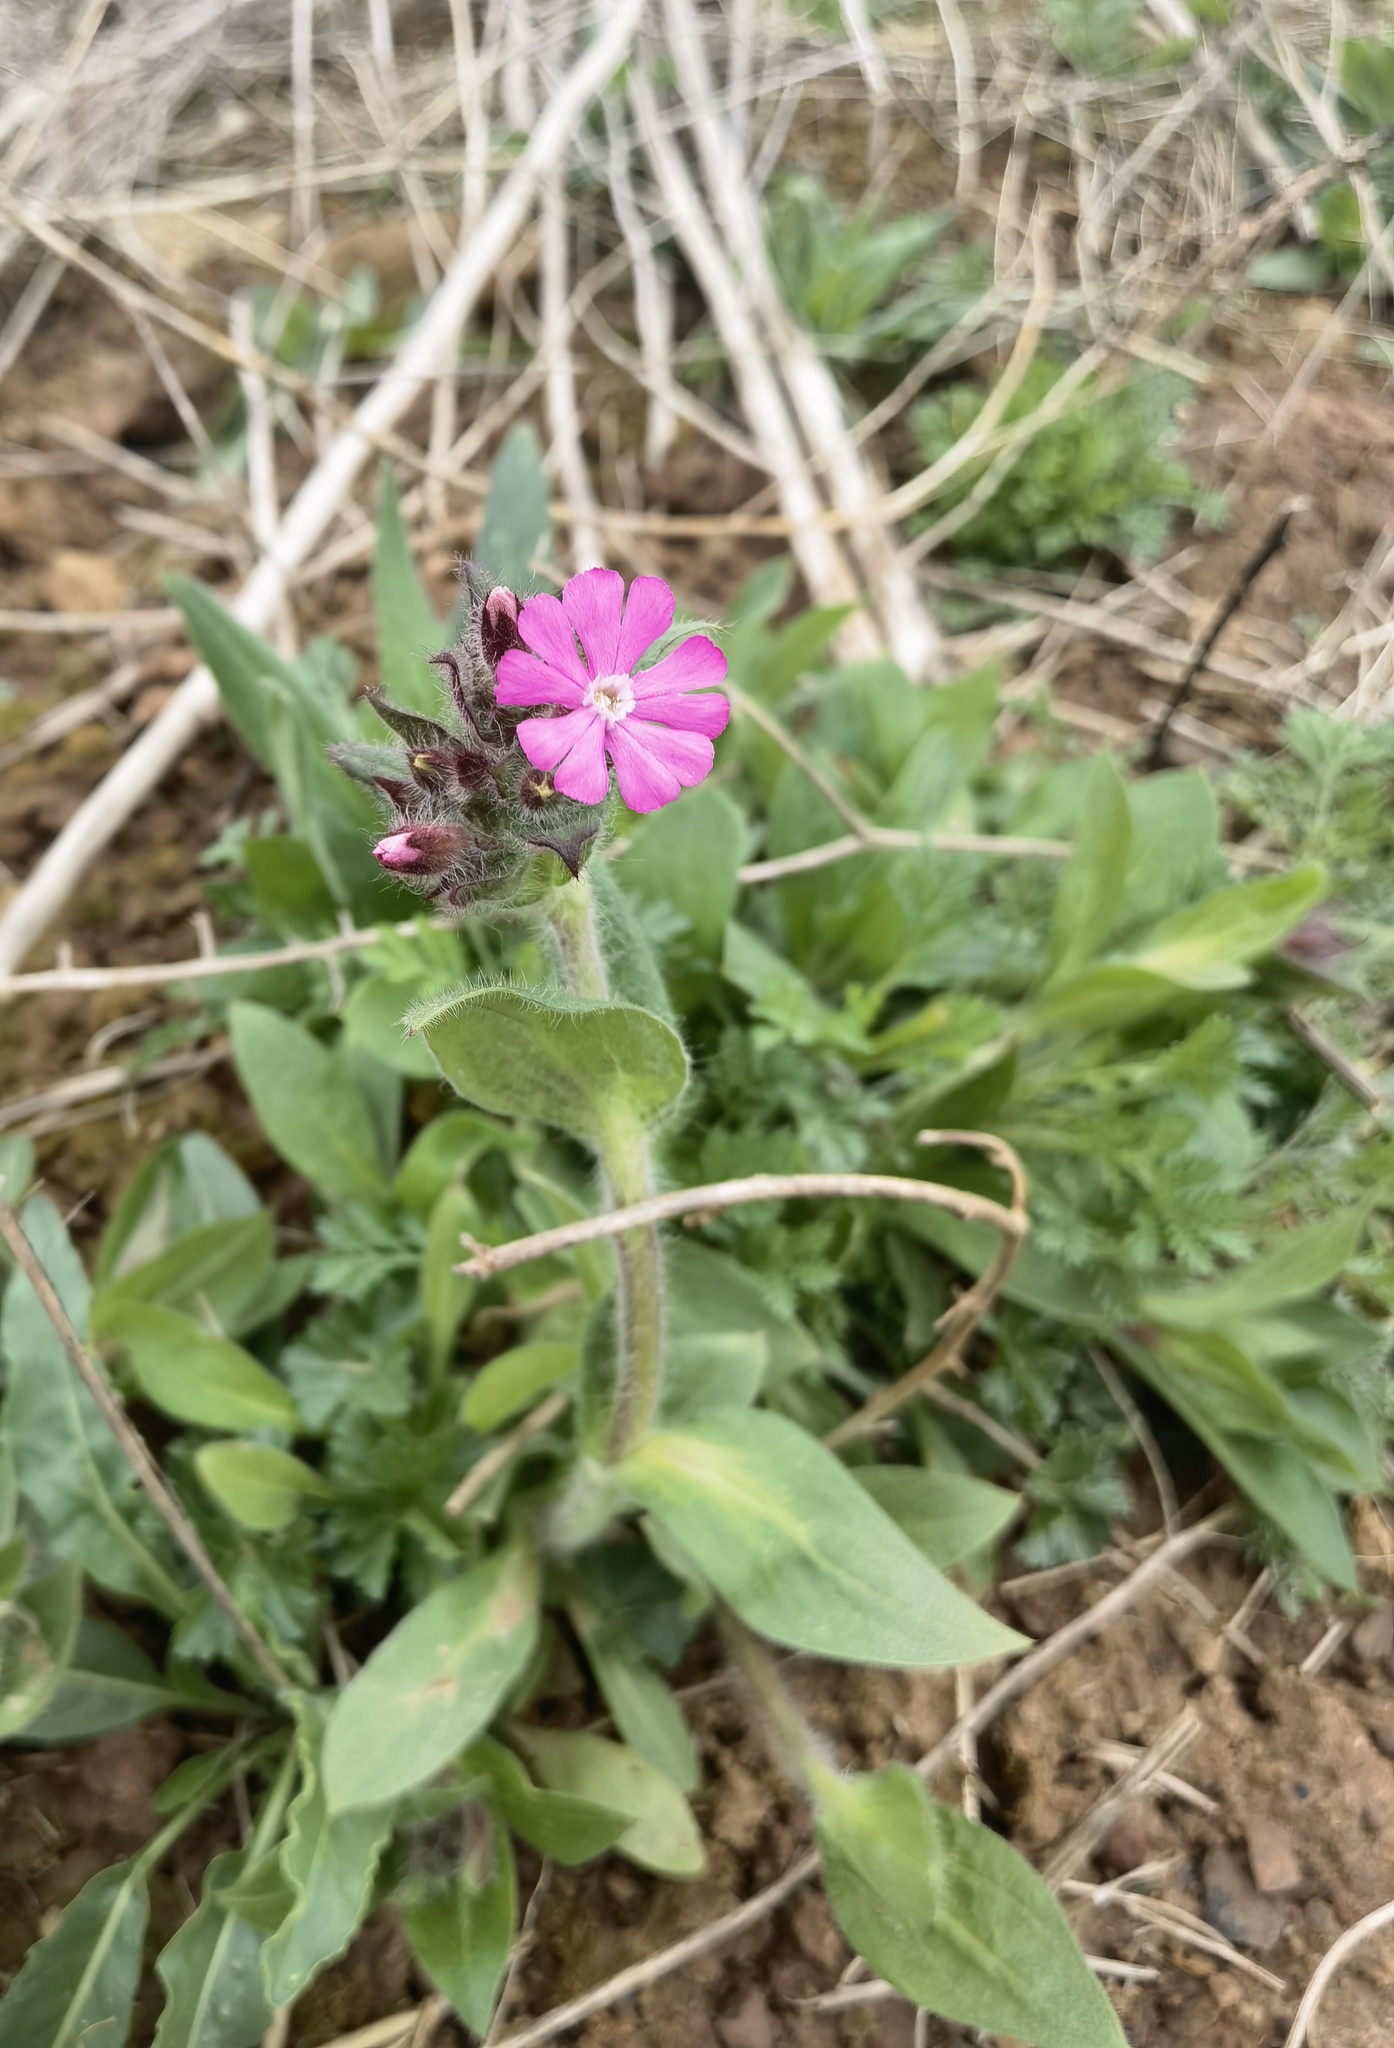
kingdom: Plantae
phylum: Tracheophyta
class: Magnoliopsida
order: Caryophyllales
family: Caryophyllaceae
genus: Silene
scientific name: Silene dioica
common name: Red campion
